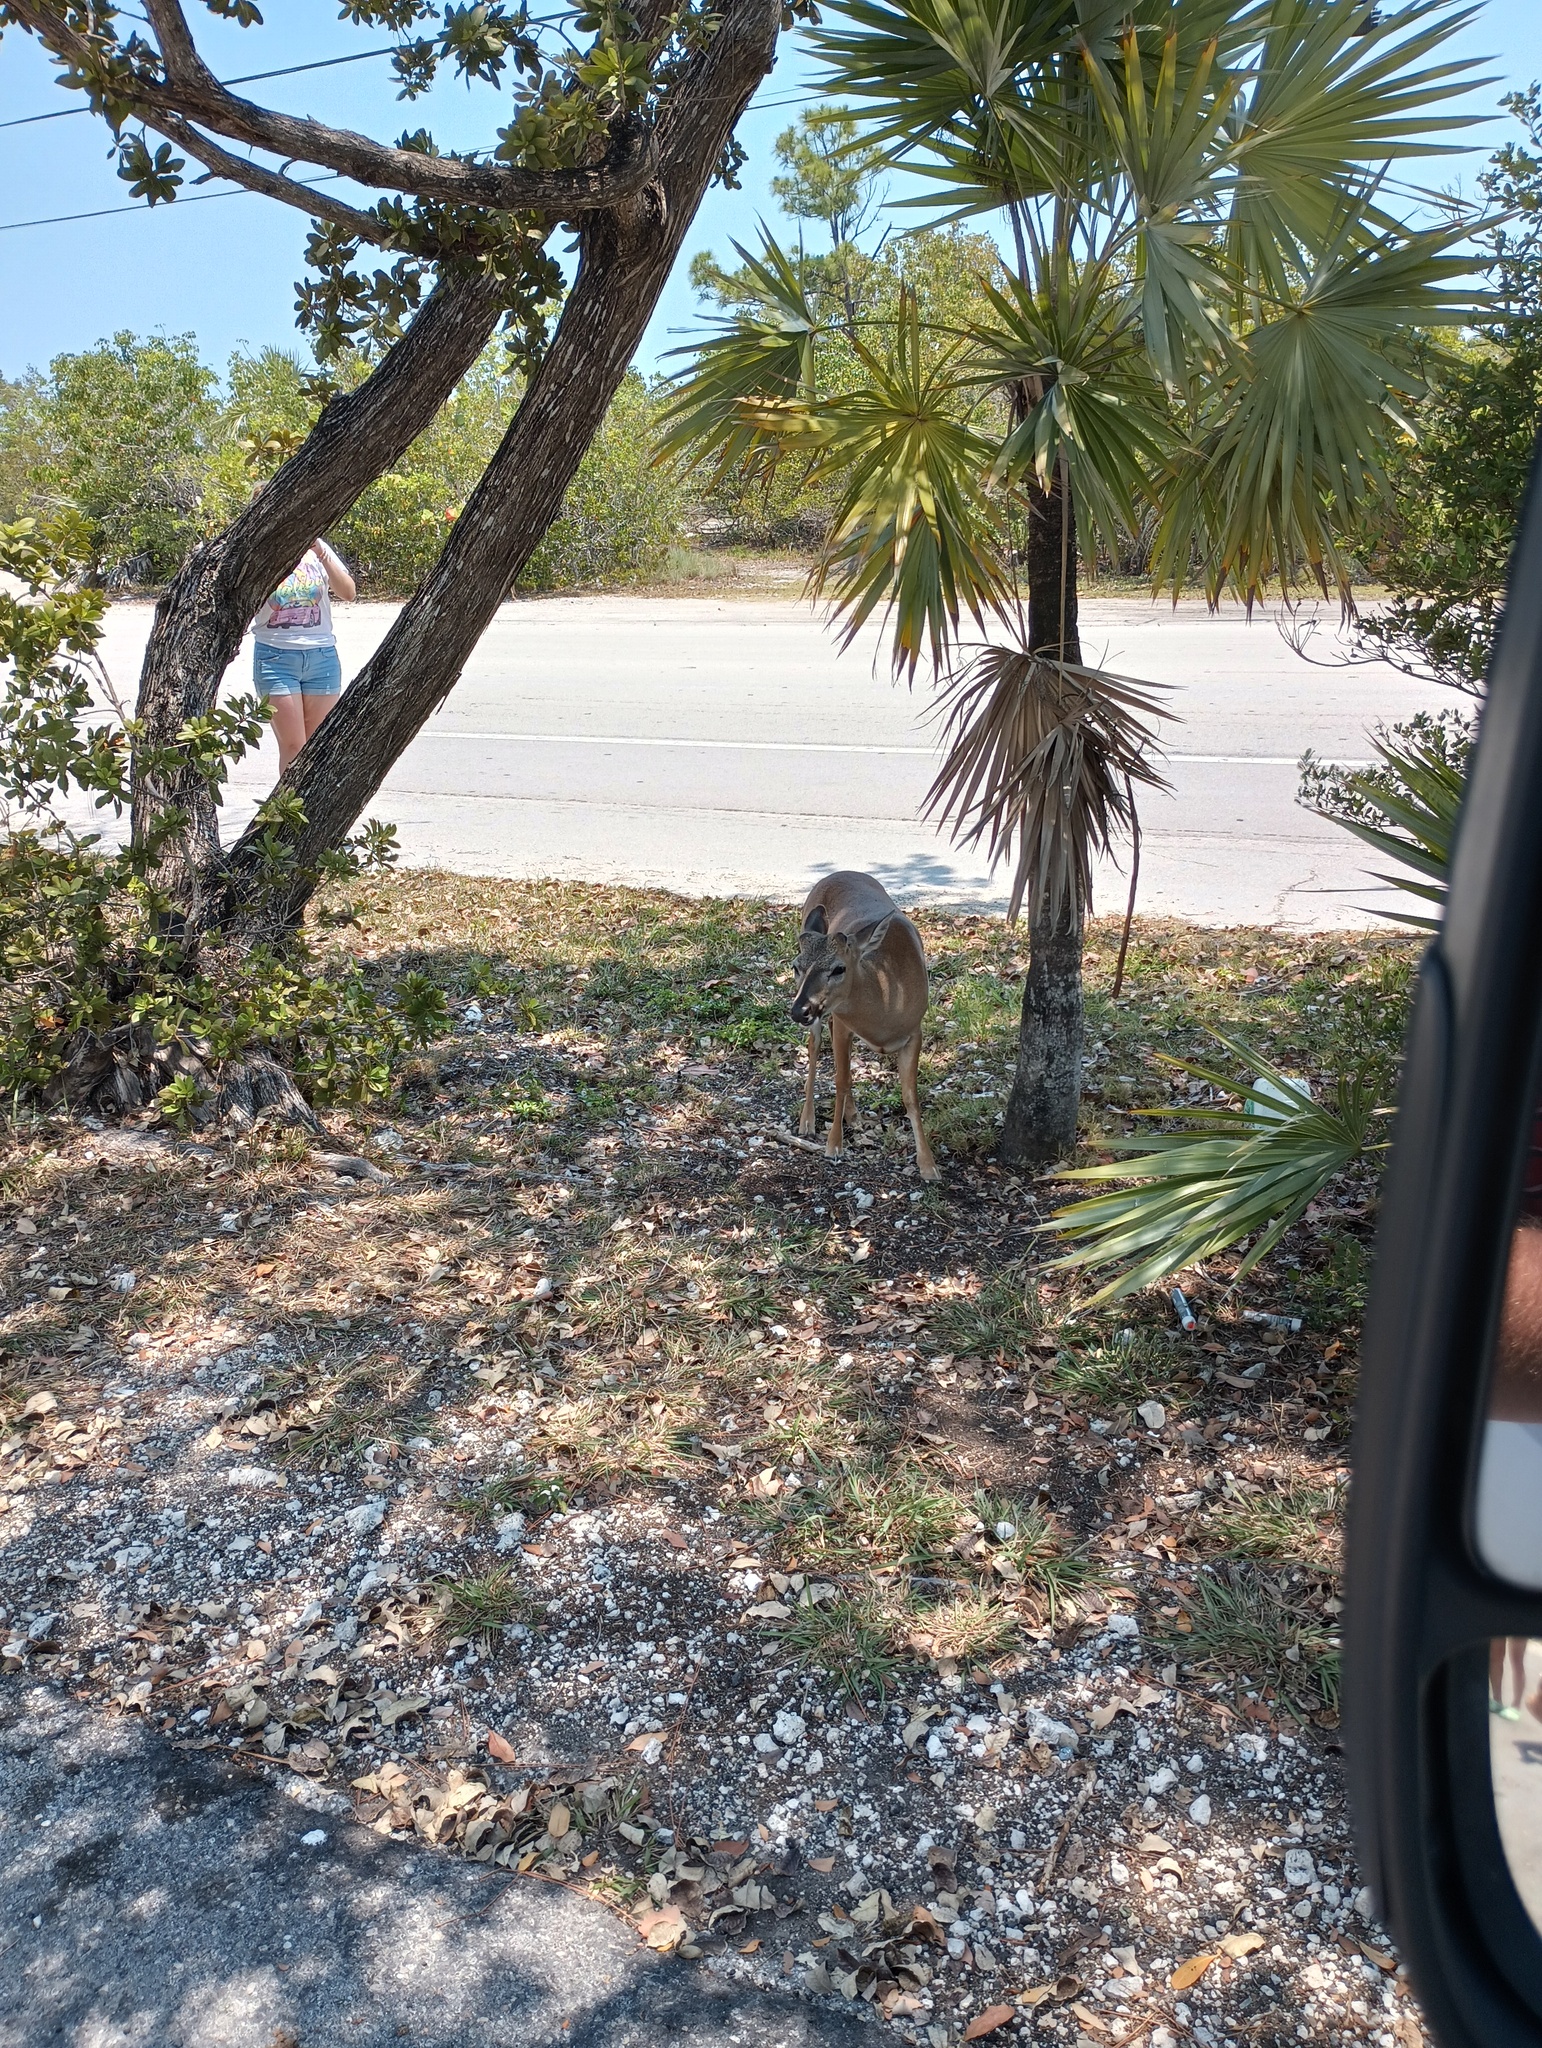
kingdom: Animalia
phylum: Chordata
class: Mammalia
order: Artiodactyla
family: Cervidae
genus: Odocoileus
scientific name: Odocoileus virginianus
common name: White-tailed deer
